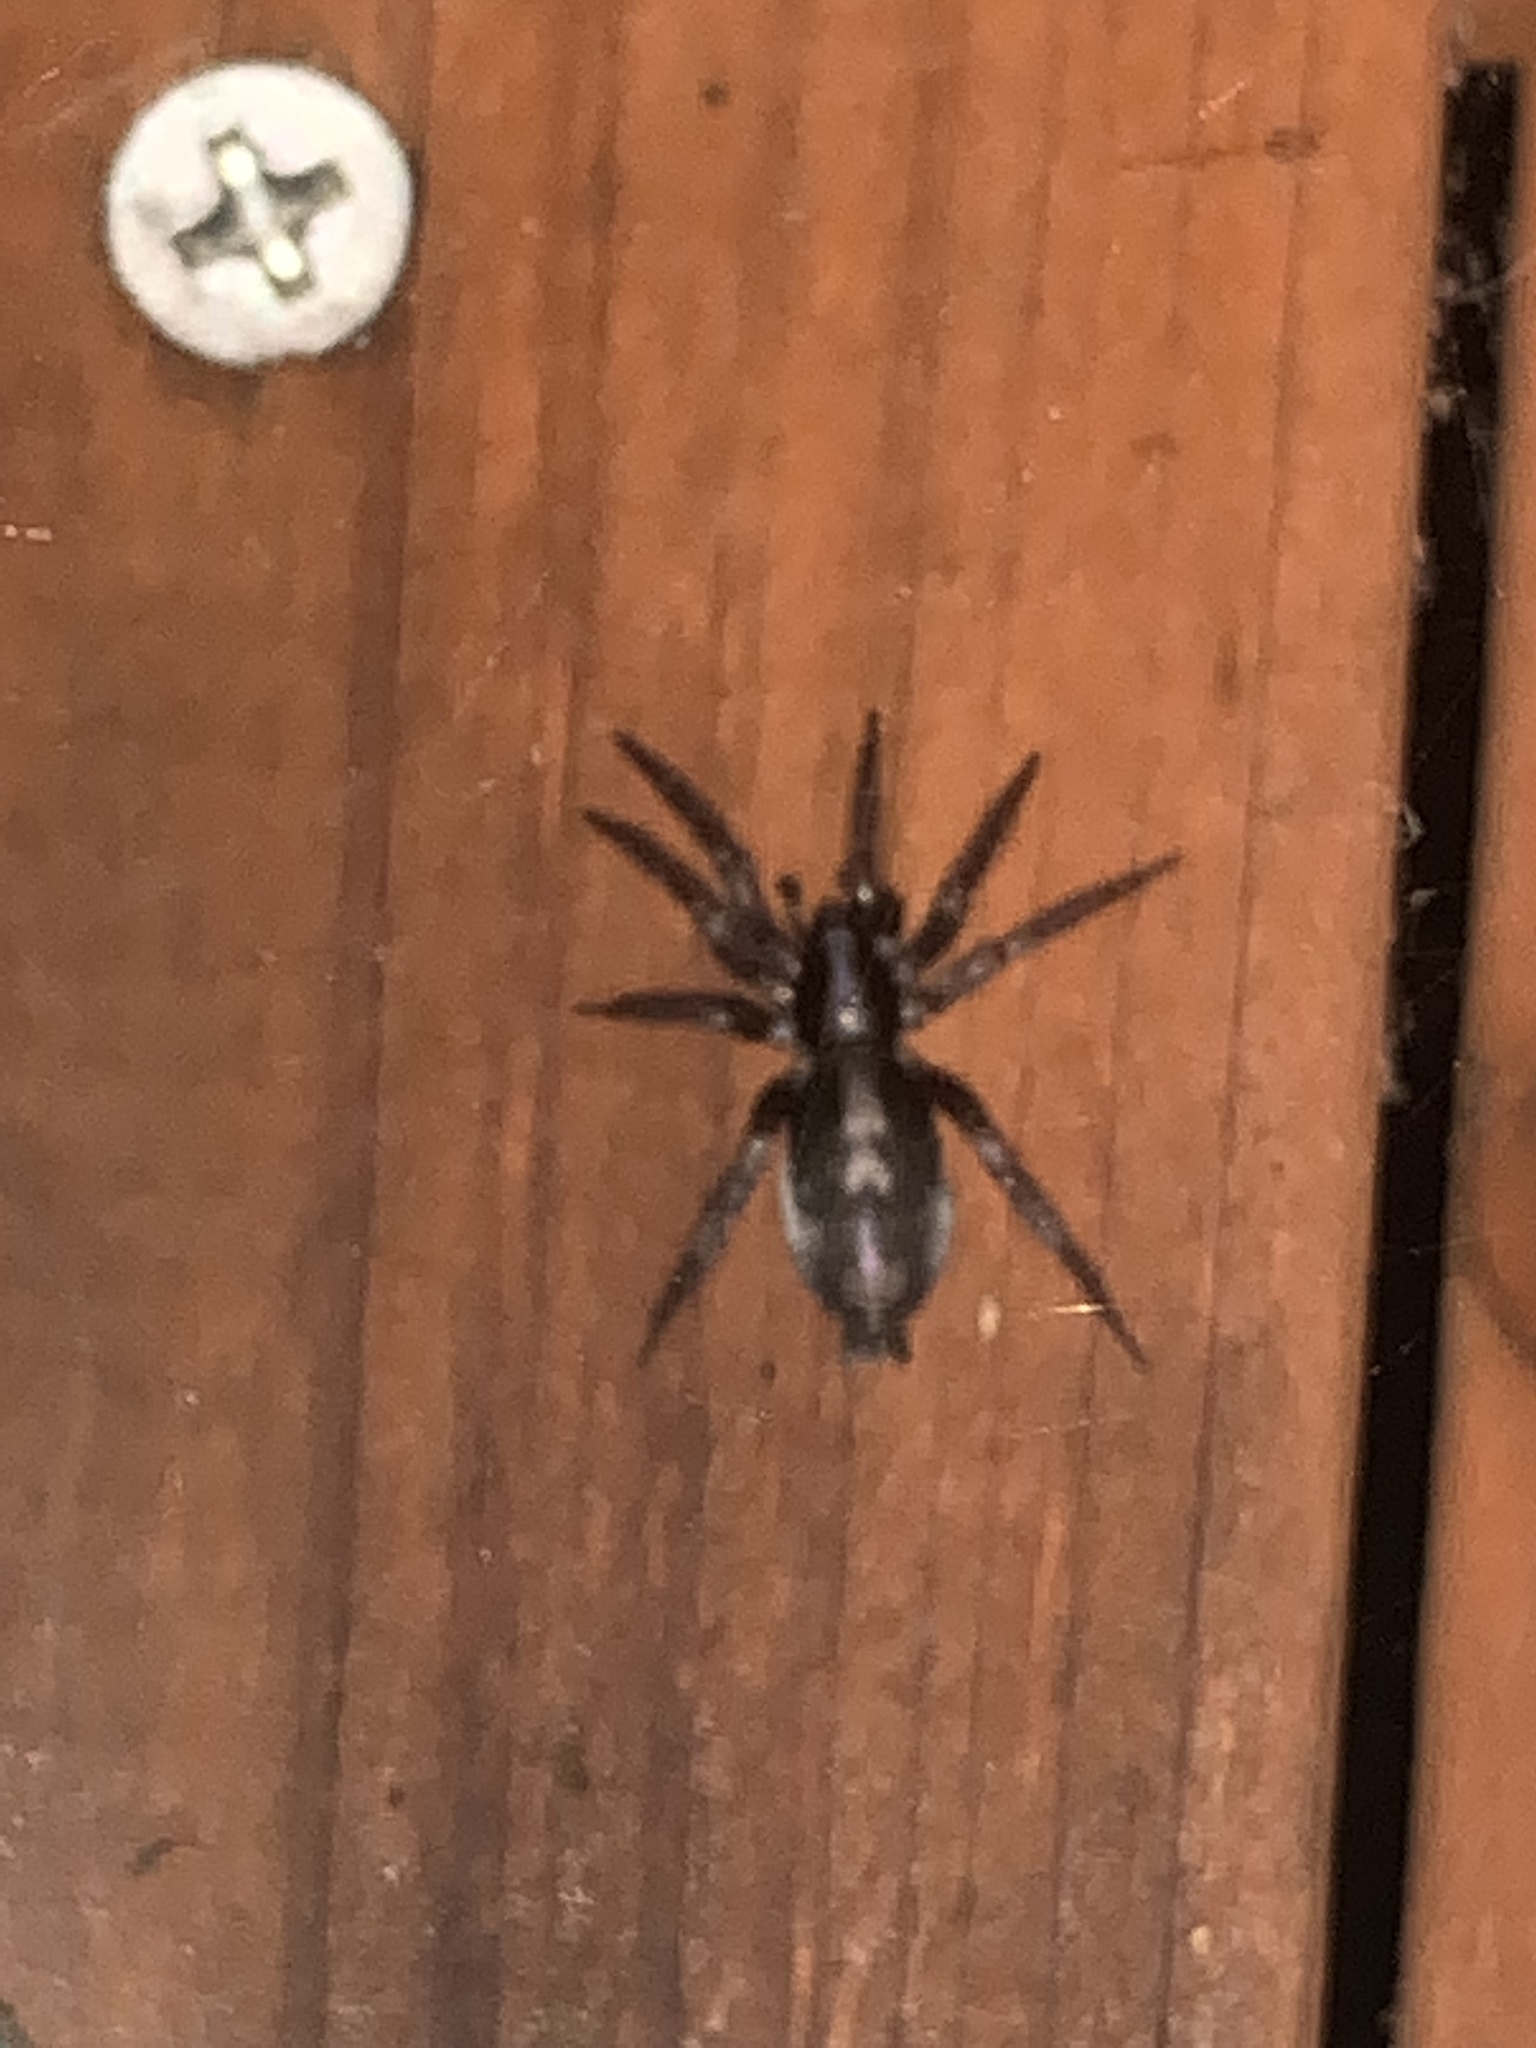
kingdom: Animalia
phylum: Arthropoda
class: Arachnida
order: Araneae
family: Gnaphosidae
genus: Herpyllus
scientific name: Herpyllus ecclesiasticus
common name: Eastern parson spider
